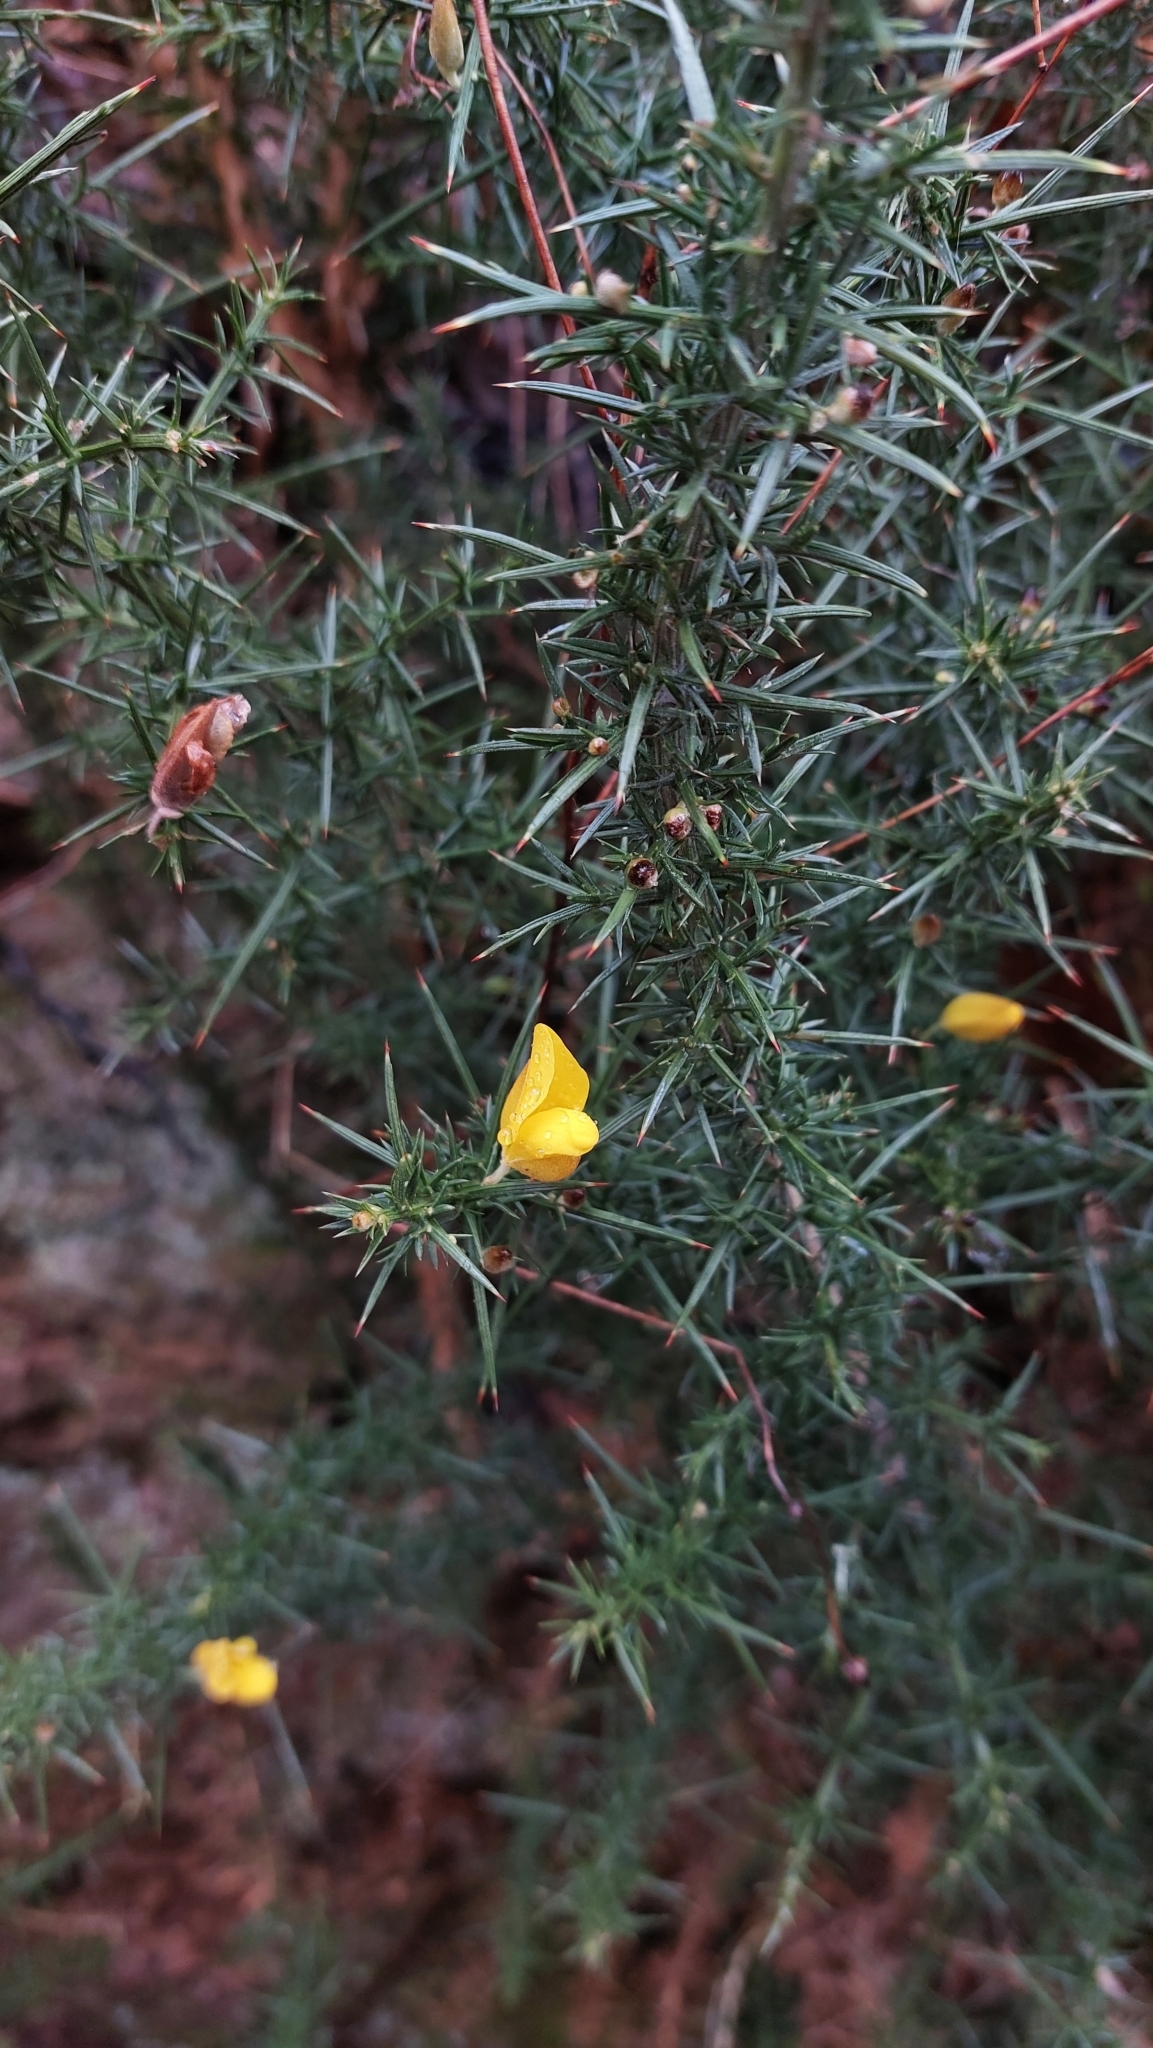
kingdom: Plantae
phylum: Tracheophyta
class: Magnoliopsida
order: Fabales
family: Fabaceae
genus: Ulex
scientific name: Ulex europaeus
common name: Common gorse
